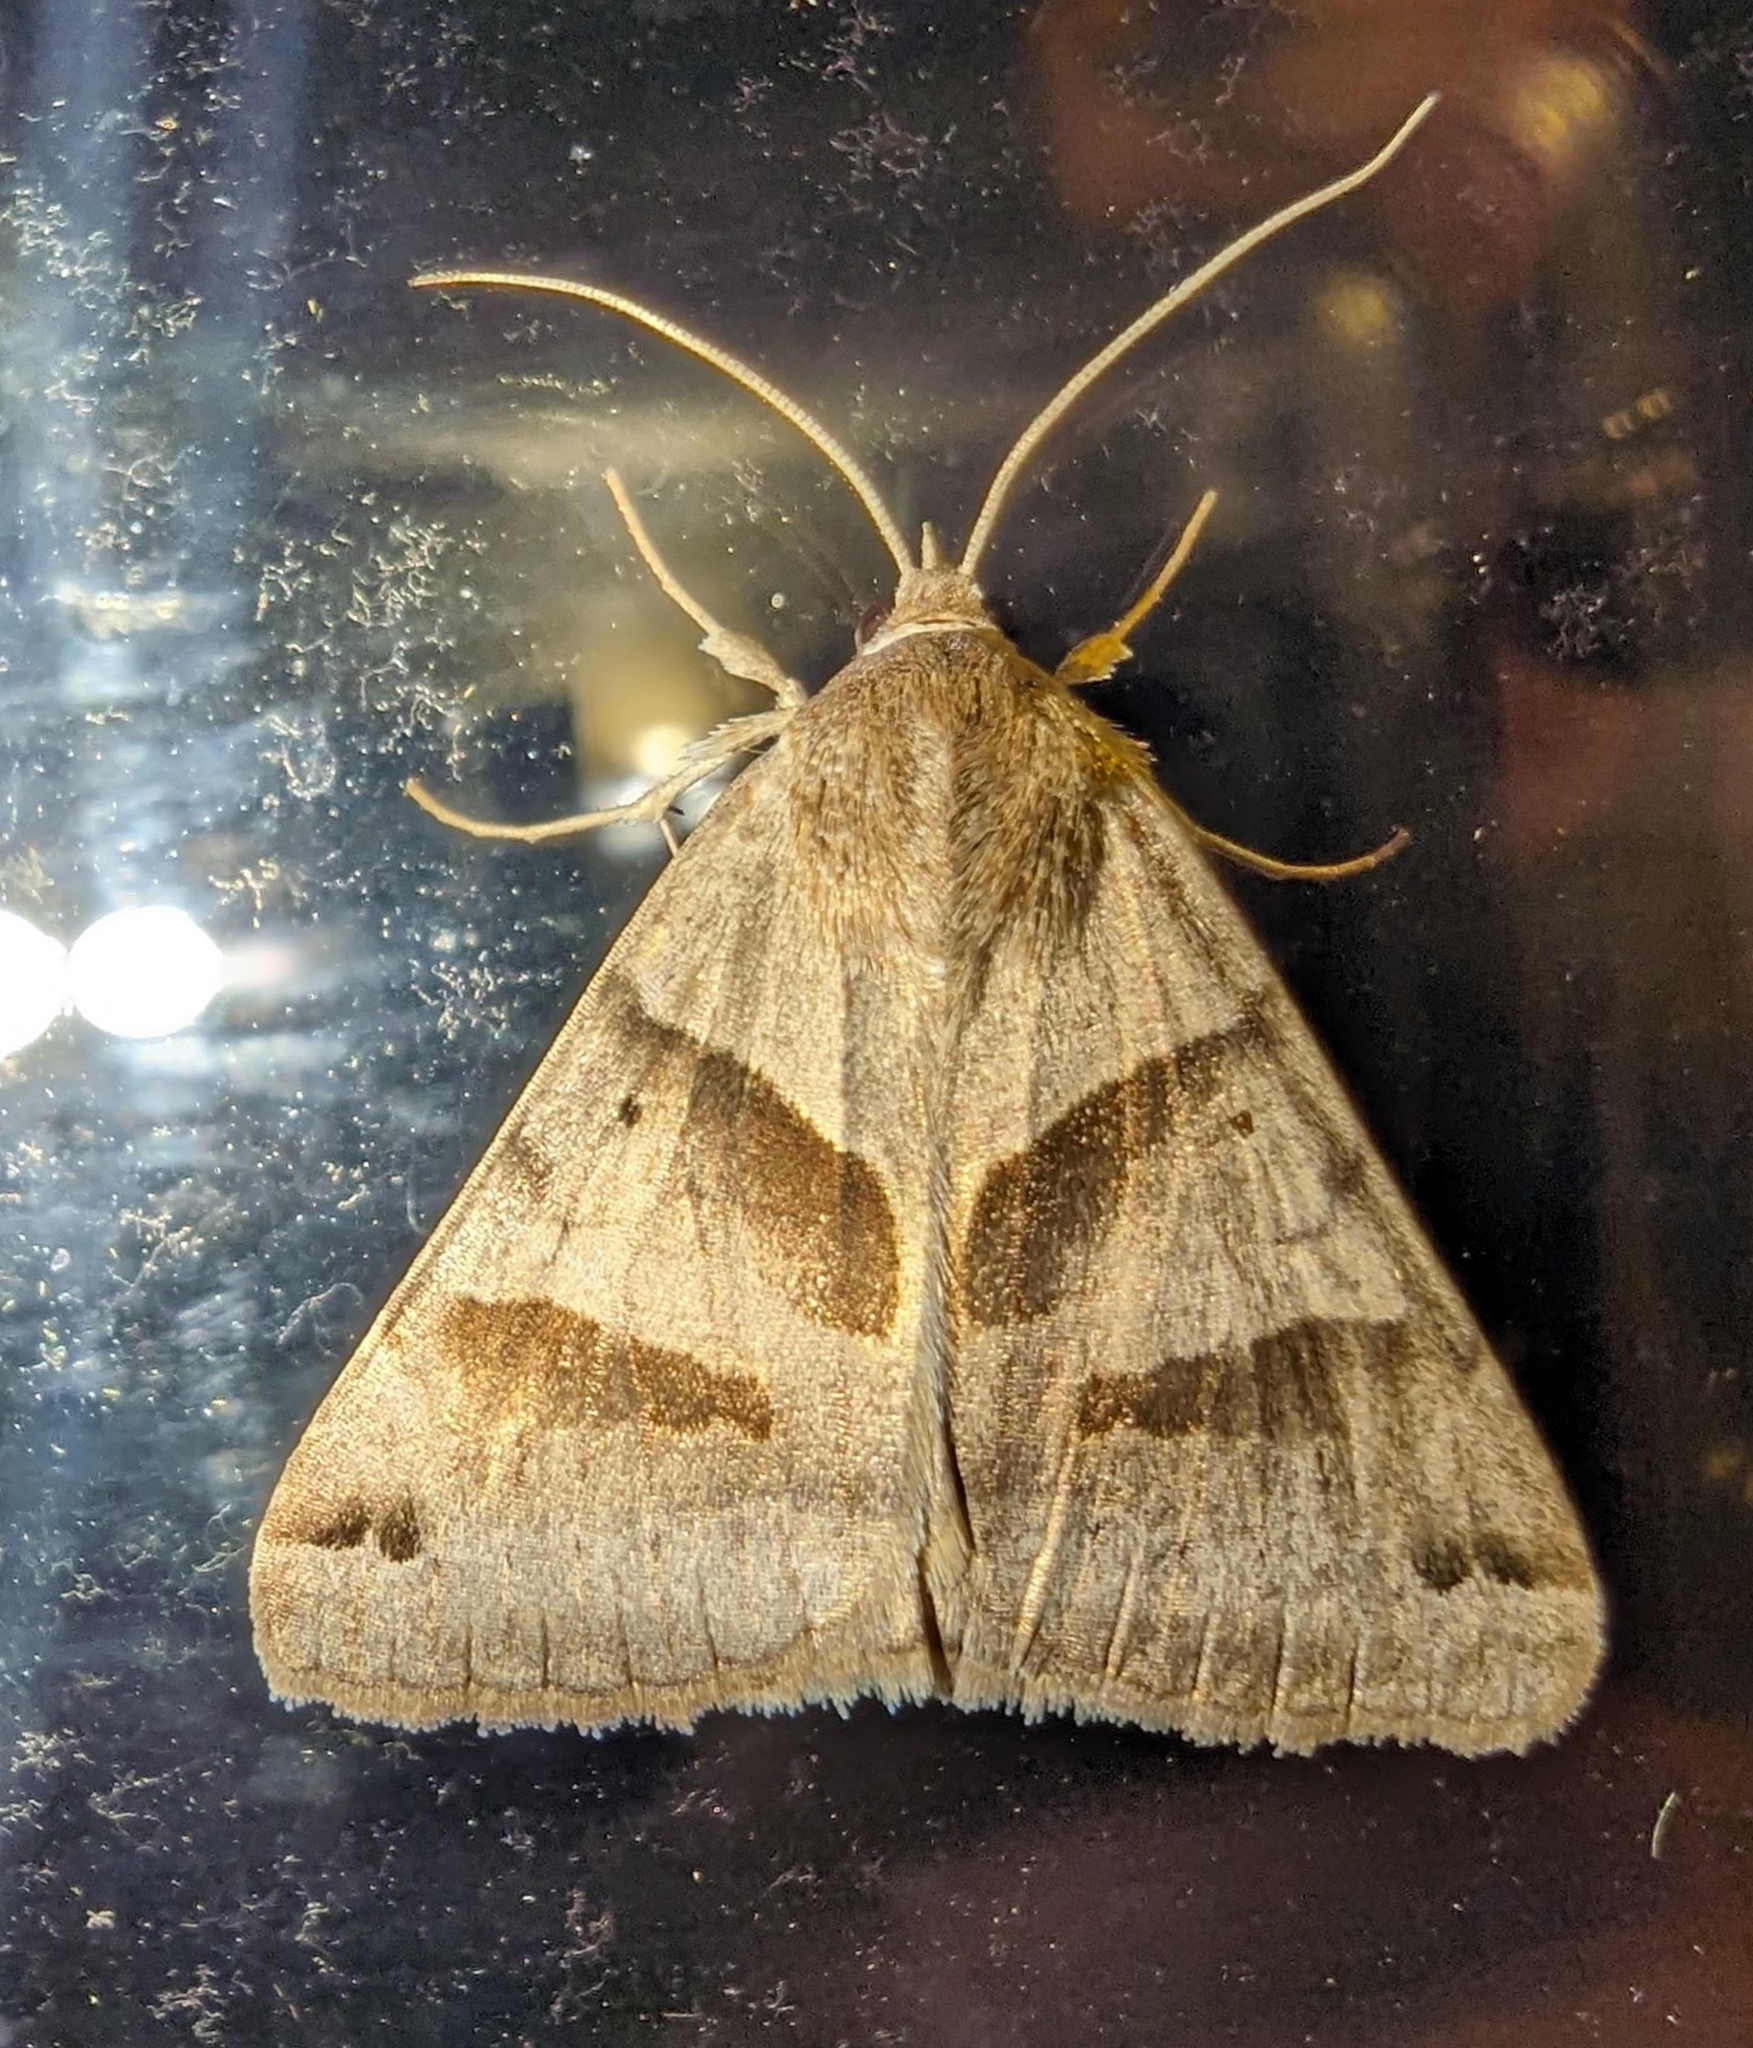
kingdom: Animalia
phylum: Arthropoda
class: Insecta
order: Lepidoptera
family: Erebidae
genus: Caenurgina
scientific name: Caenurgina erechtea
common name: Forage looper moth
